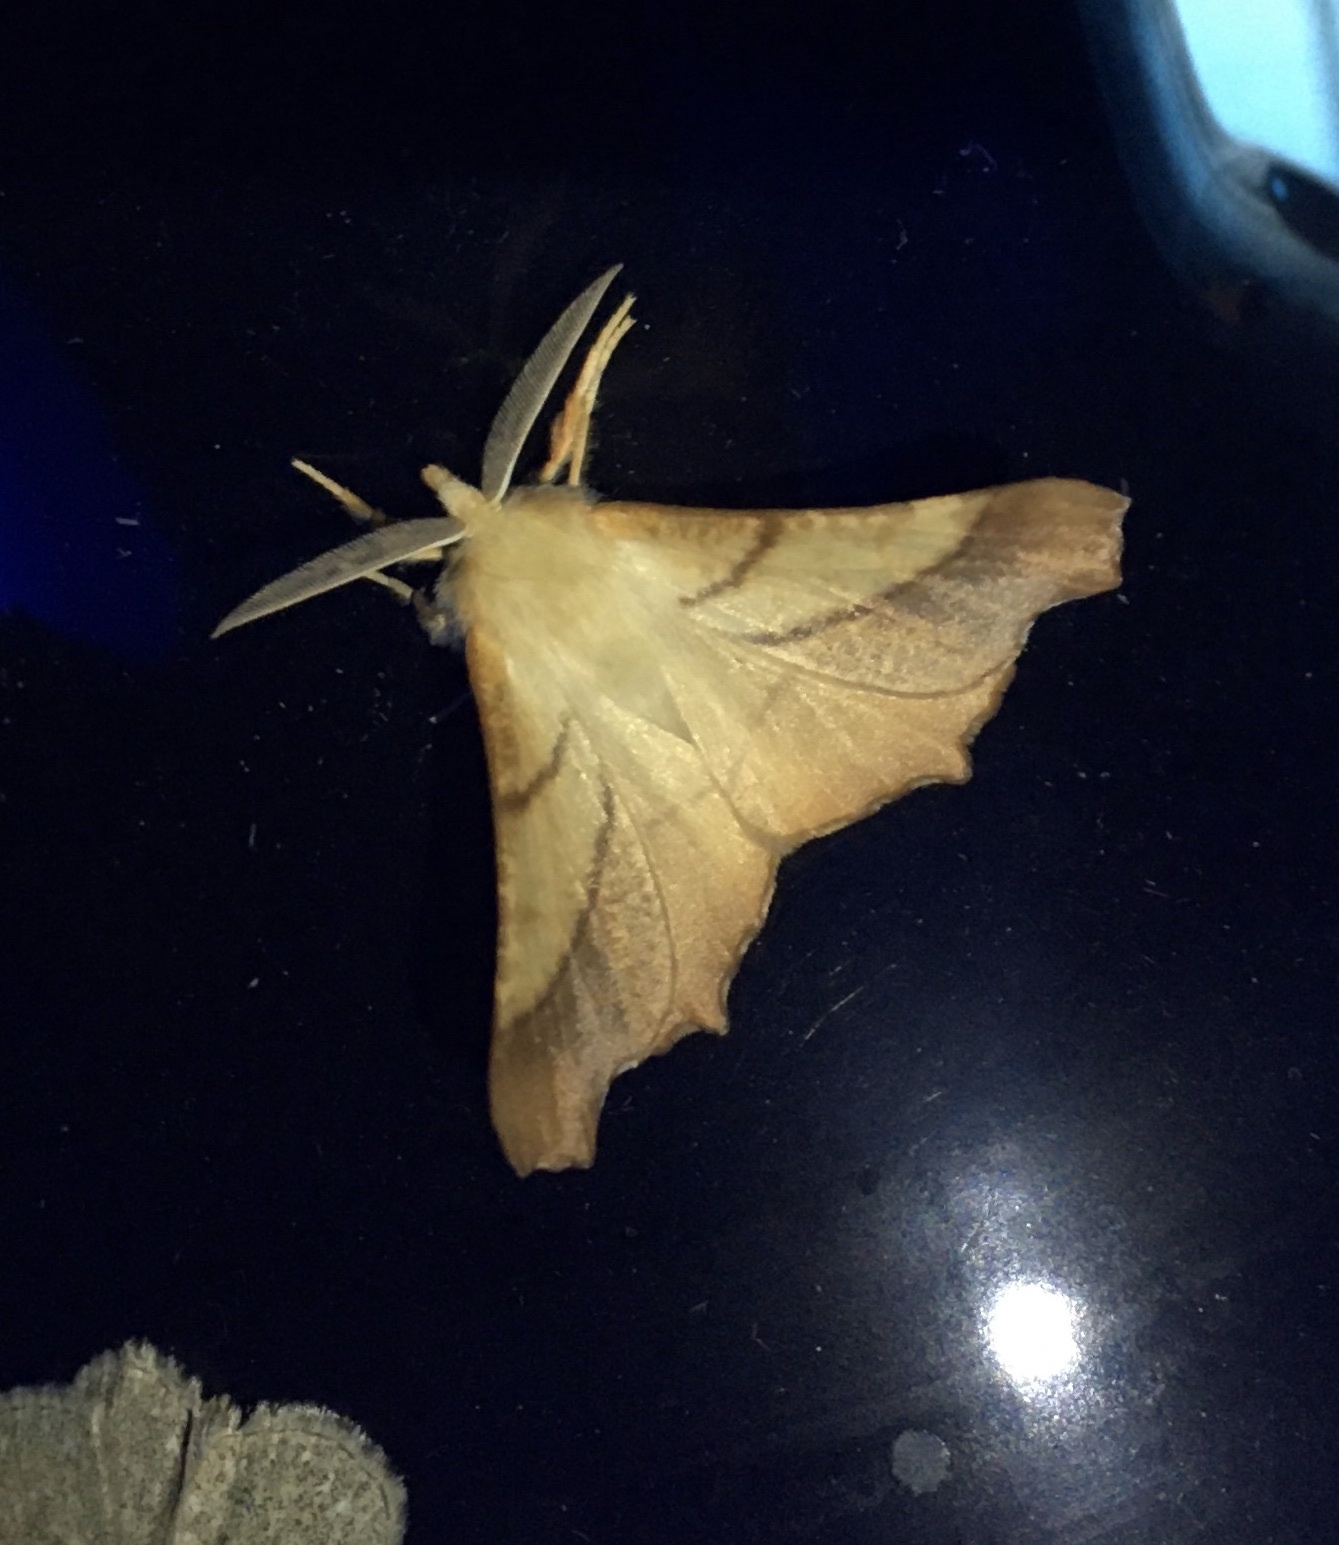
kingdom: Animalia
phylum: Arthropoda
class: Insecta
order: Lepidoptera
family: Geometridae
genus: Ennomos
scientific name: Ennomos fuscantaria
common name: Dusky thorn
